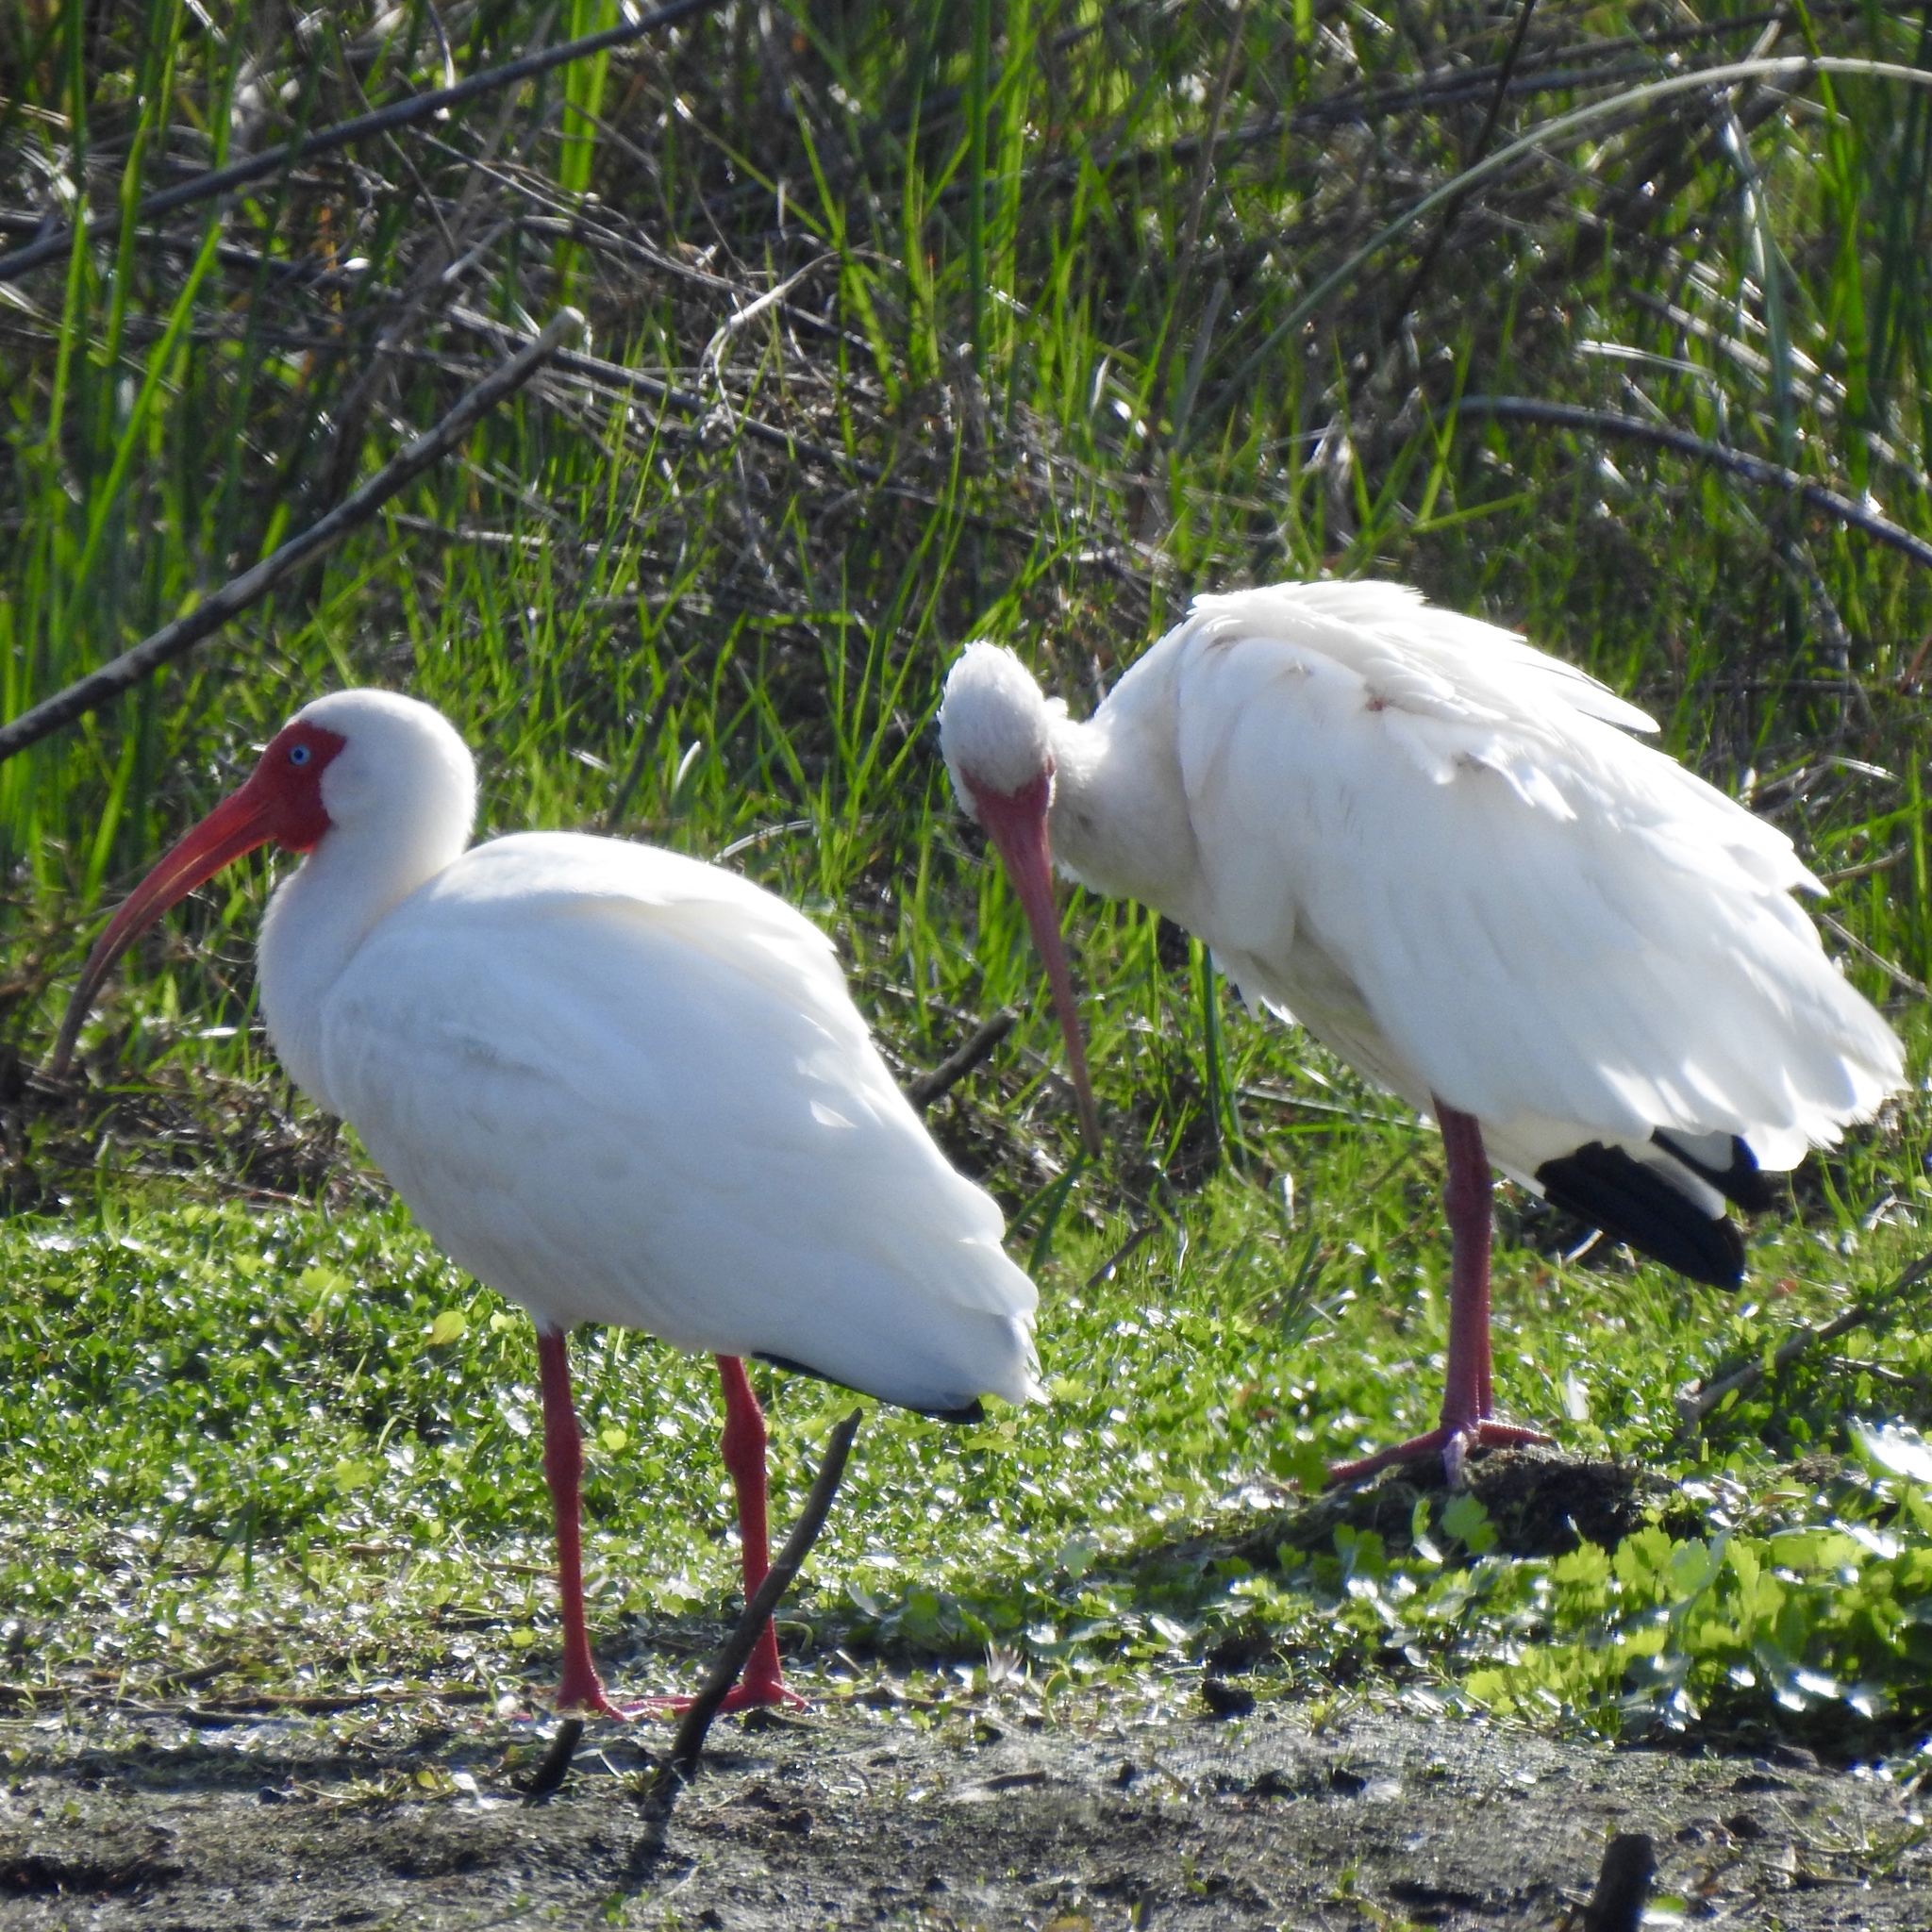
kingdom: Animalia
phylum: Chordata
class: Aves
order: Pelecaniformes
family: Threskiornithidae
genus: Eudocimus
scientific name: Eudocimus albus
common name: White ibis
